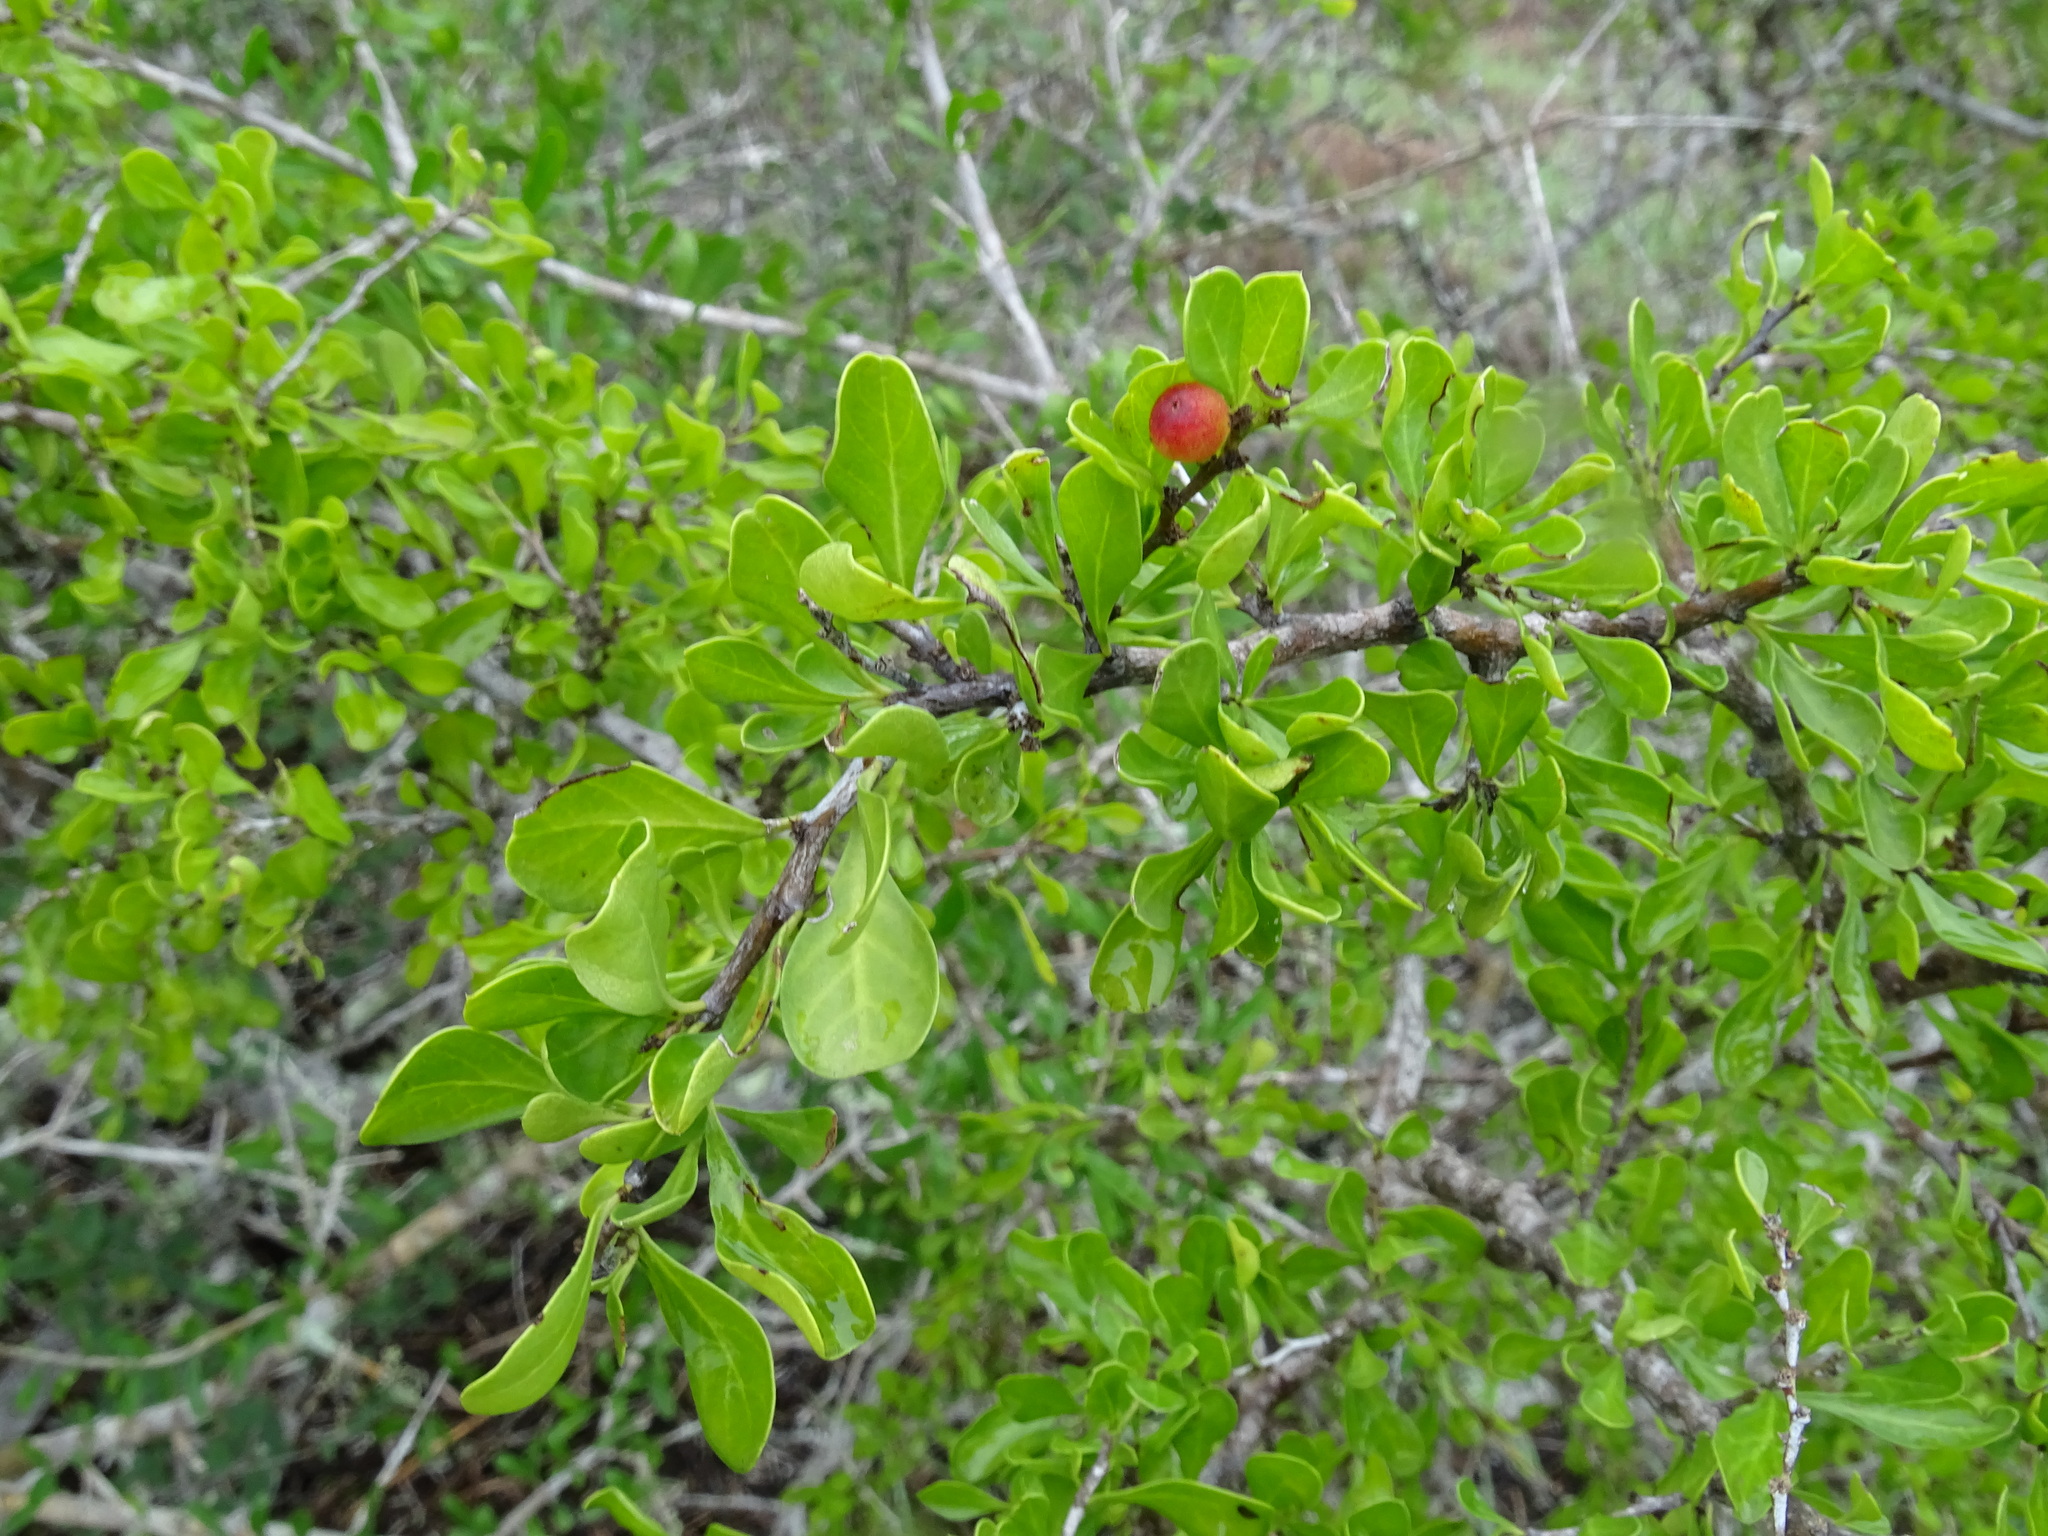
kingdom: Plantae
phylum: Tracheophyta
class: Magnoliopsida
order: Rosales
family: Rhamnaceae
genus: Condalia
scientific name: Condalia hookeri
